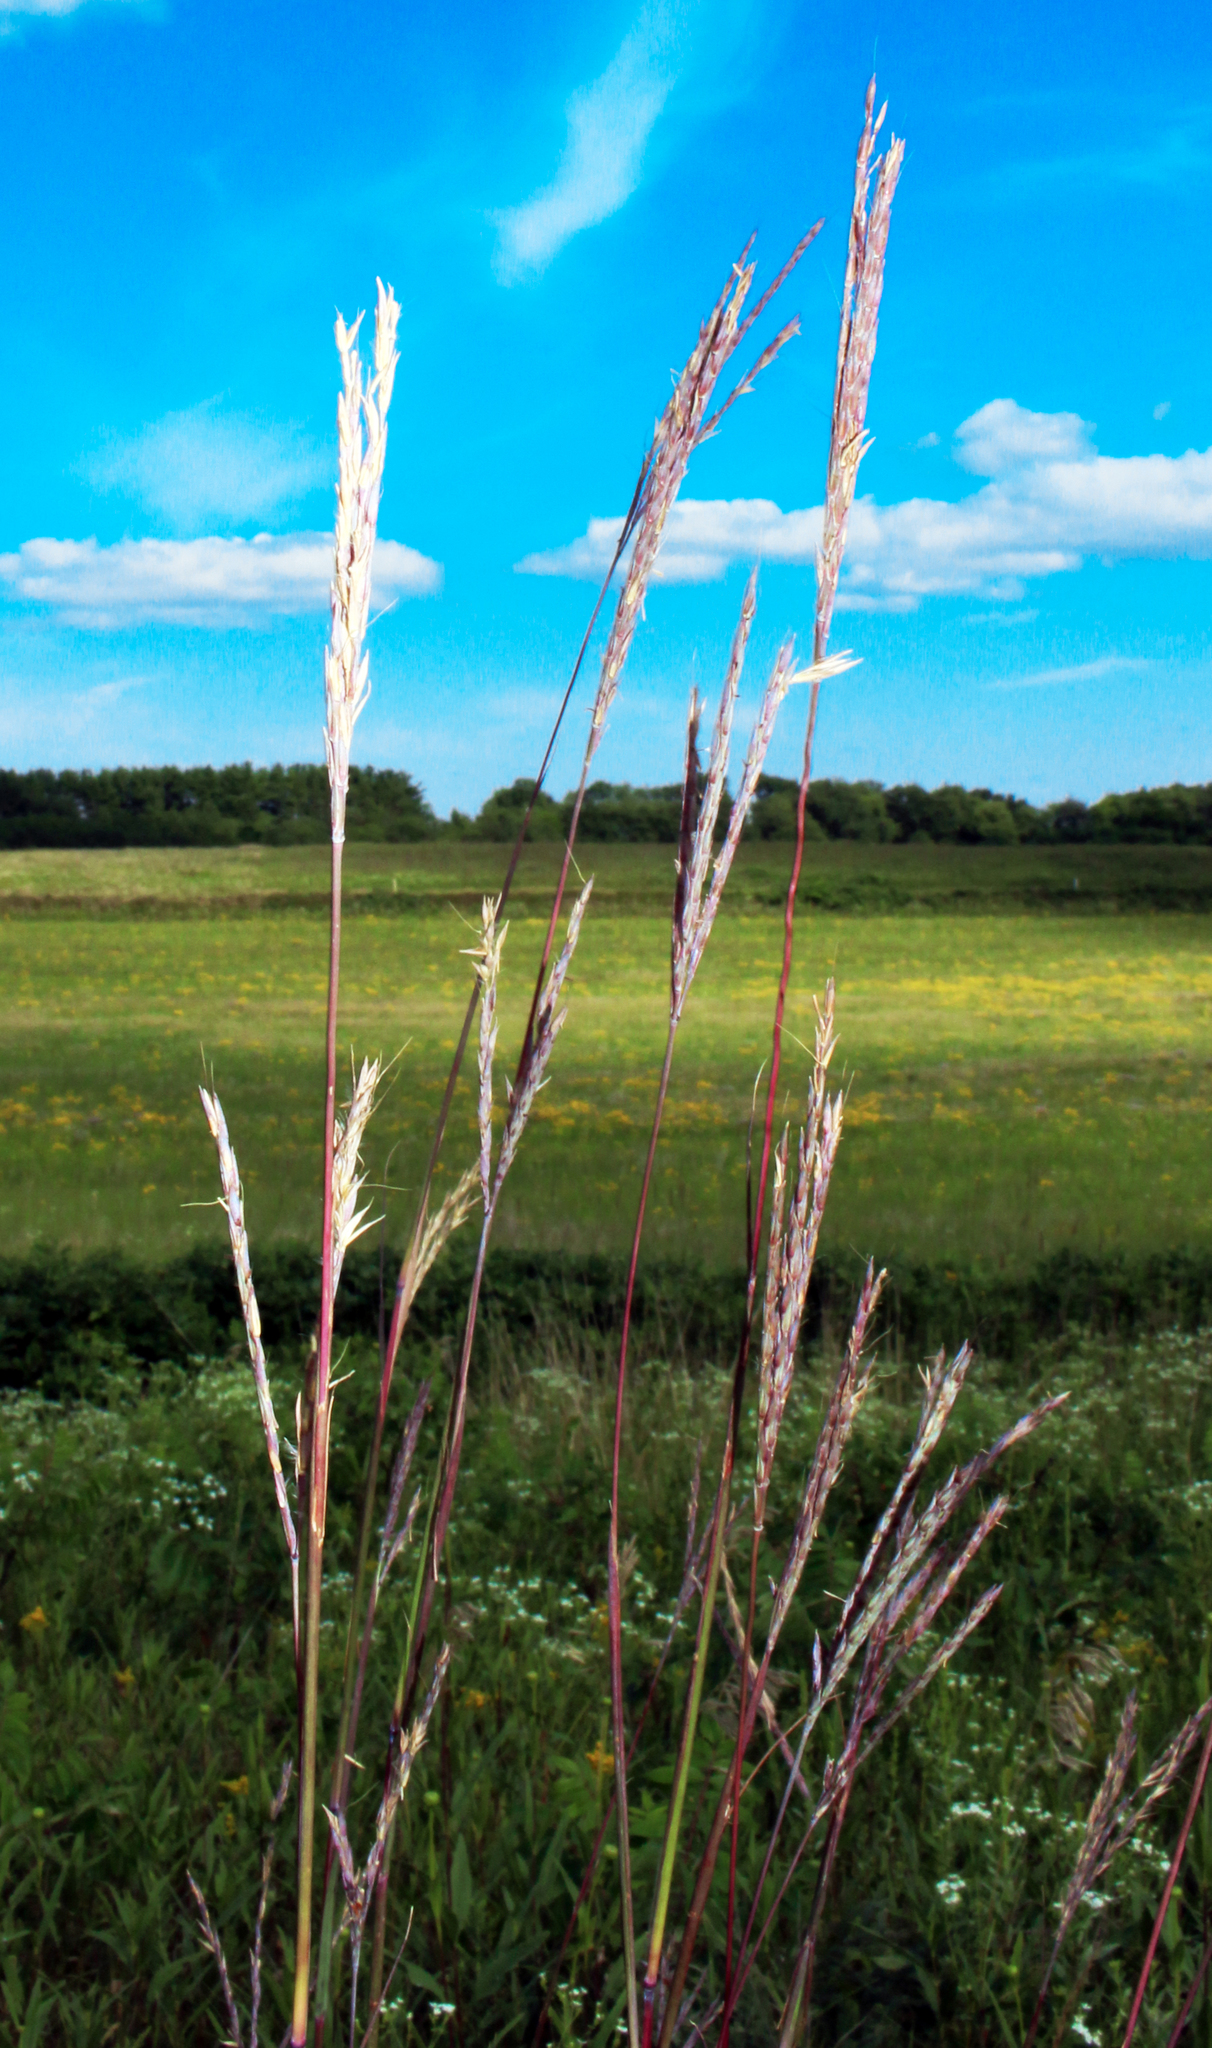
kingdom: Plantae
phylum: Tracheophyta
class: Liliopsida
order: Poales
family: Poaceae
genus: Andropogon
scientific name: Andropogon gerardi
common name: Big bluestem
